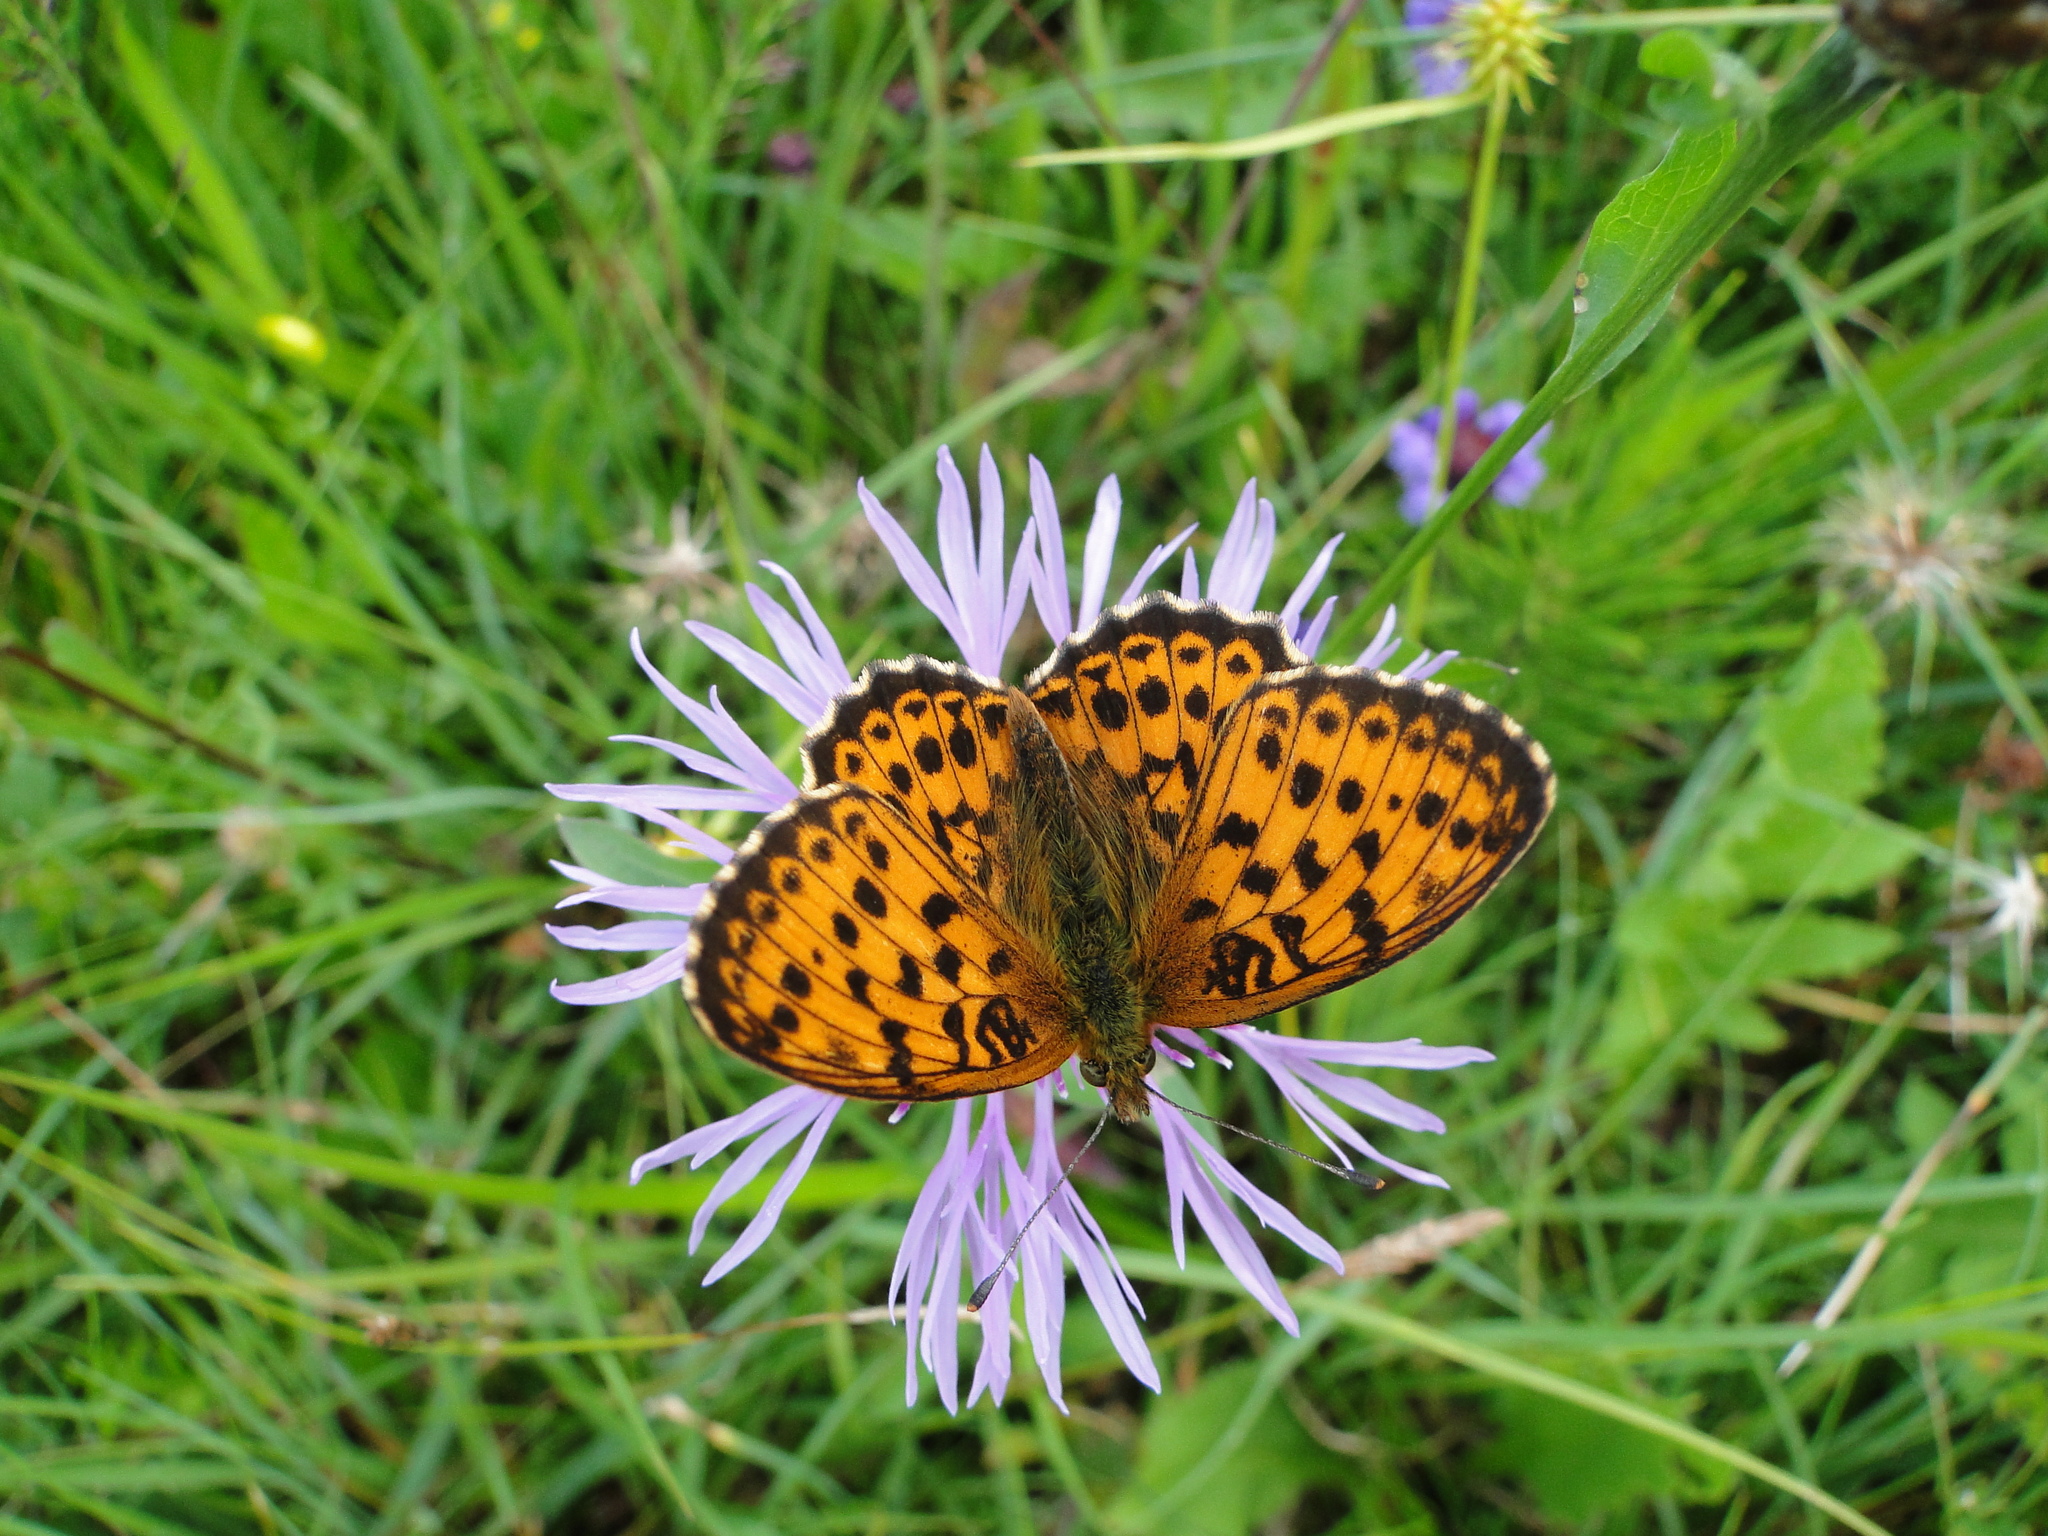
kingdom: Animalia
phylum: Arthropoda
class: Insecta
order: Lepidoptera
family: Nymphalidae
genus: Brenthis
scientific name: Brenthis ino
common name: Lesser marbled fritillary
